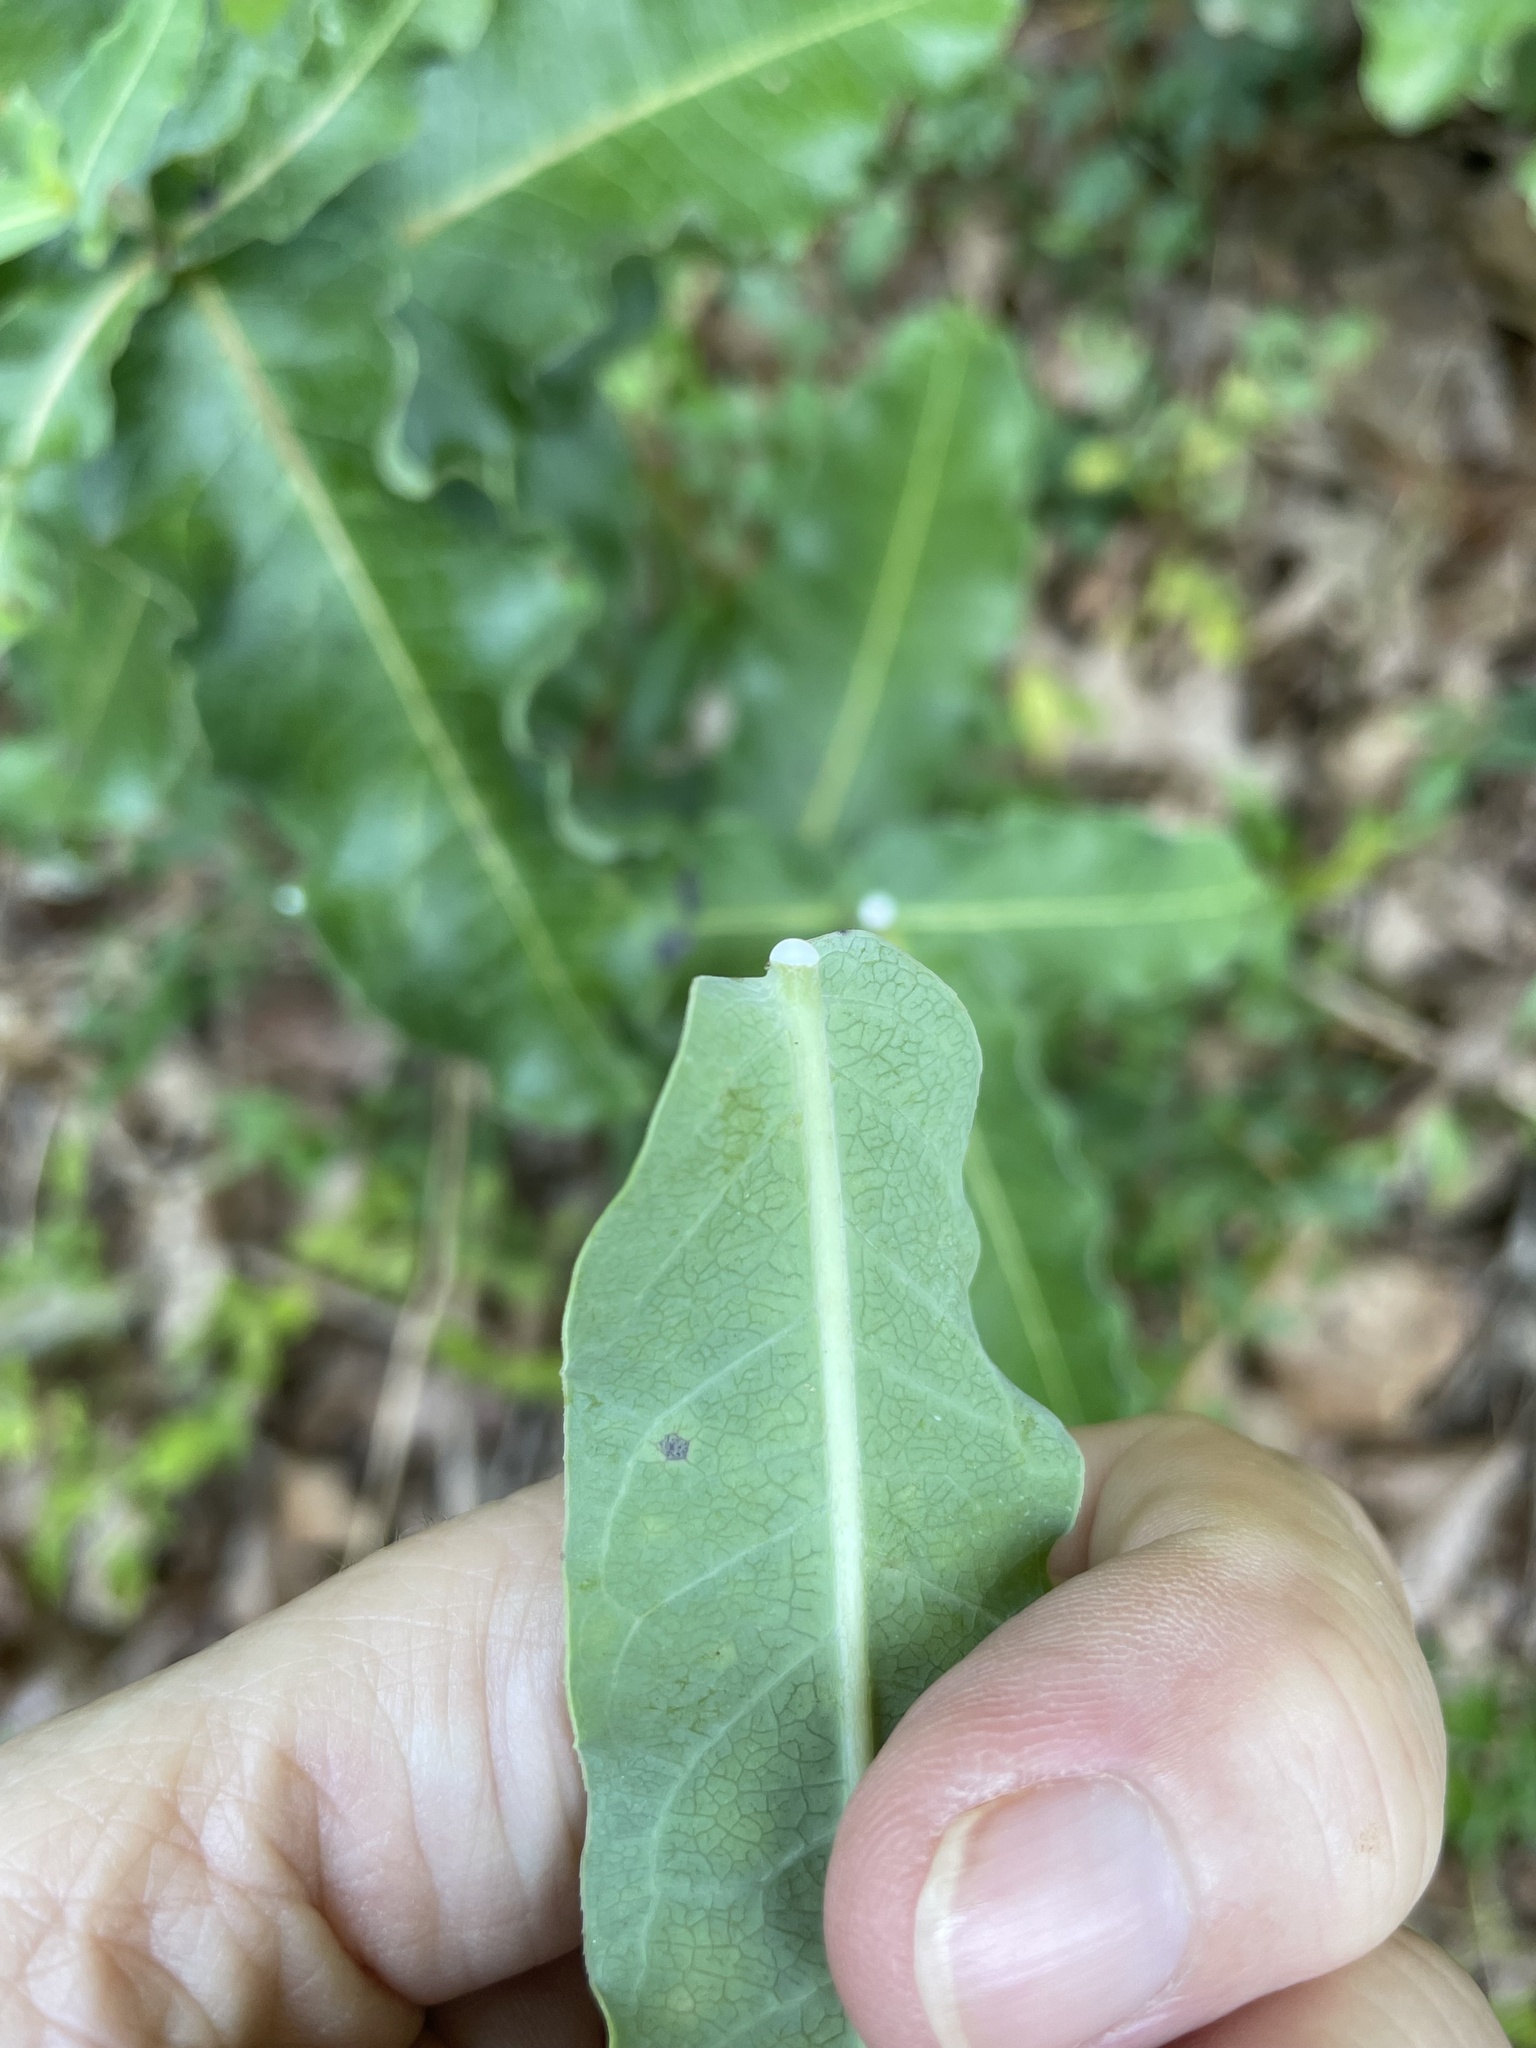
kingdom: Plantae
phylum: Tracheophyta
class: Magnoliopsida
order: Gentianales
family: Apocynaceae
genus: Asclepias
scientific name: Asclepias amplexicaulis
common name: Blunt-leaf milkweed
